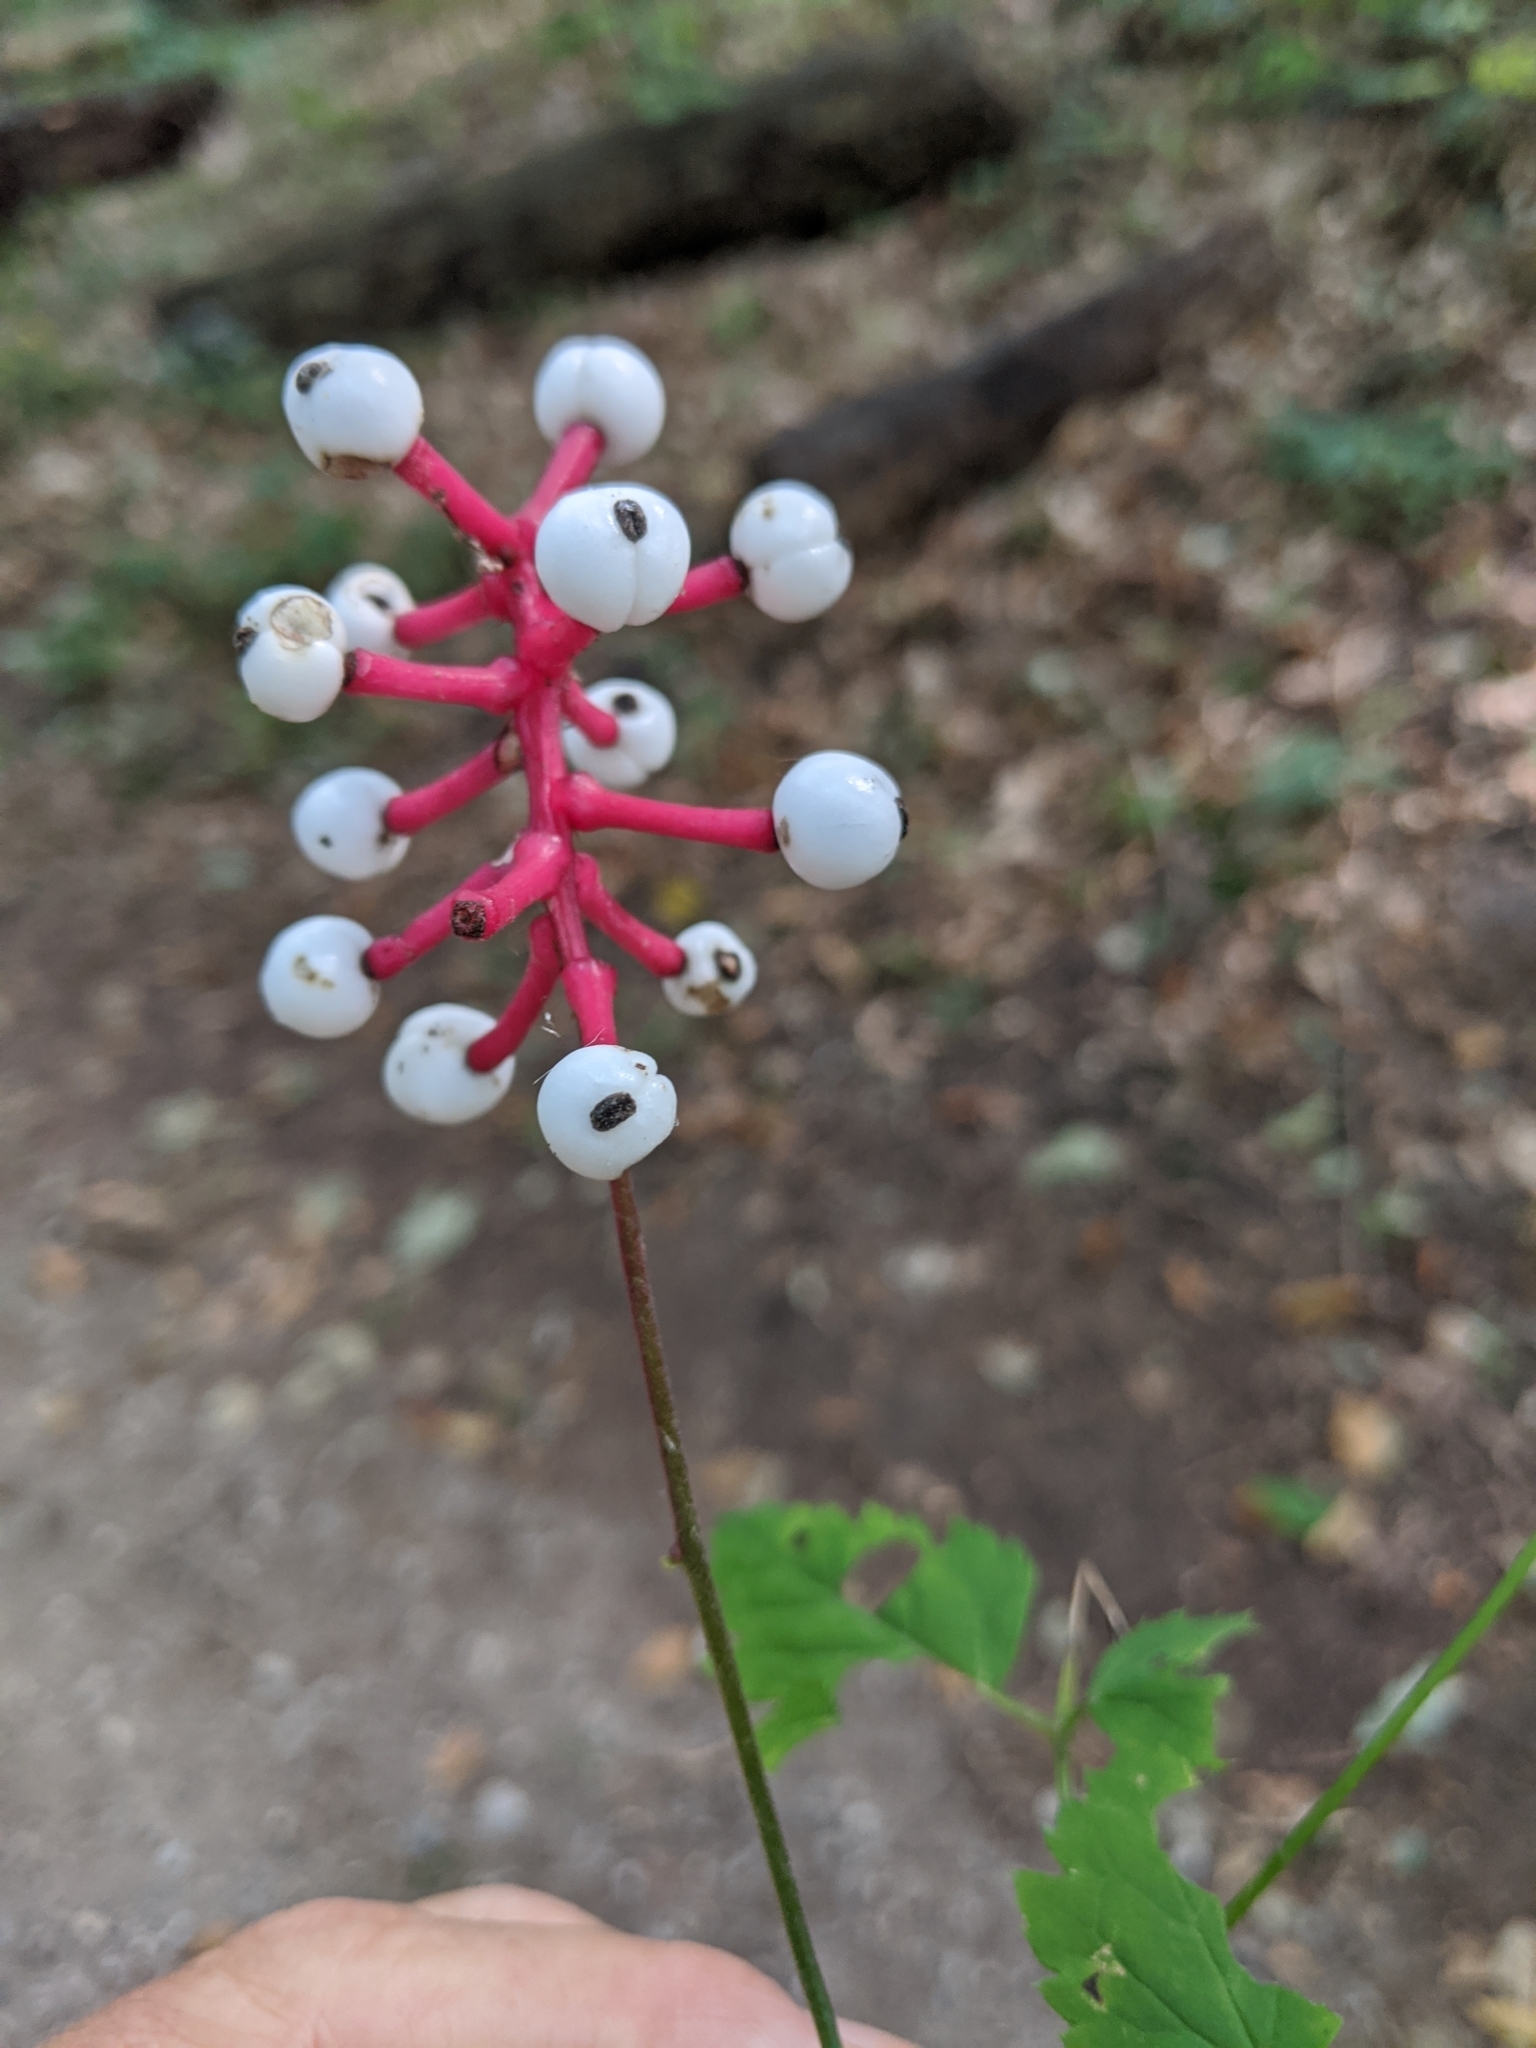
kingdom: Plantae
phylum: Tracheophyta
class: Magnoliopsida
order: Ranunculales
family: Ranunculaceae
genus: Actaea
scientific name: Actaea pachypoda
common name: Doll's-eyes
